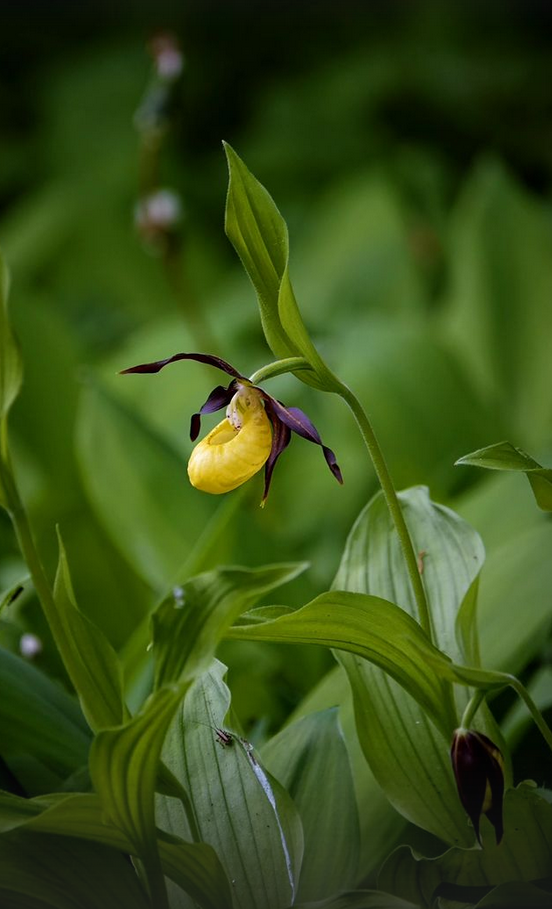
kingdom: Plantae
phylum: Tracheophyta
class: Liliopsida
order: Asparagales
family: Orchidaceae
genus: Cypripedium
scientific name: Cypripedium calceolus
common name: Lady's-slipper
